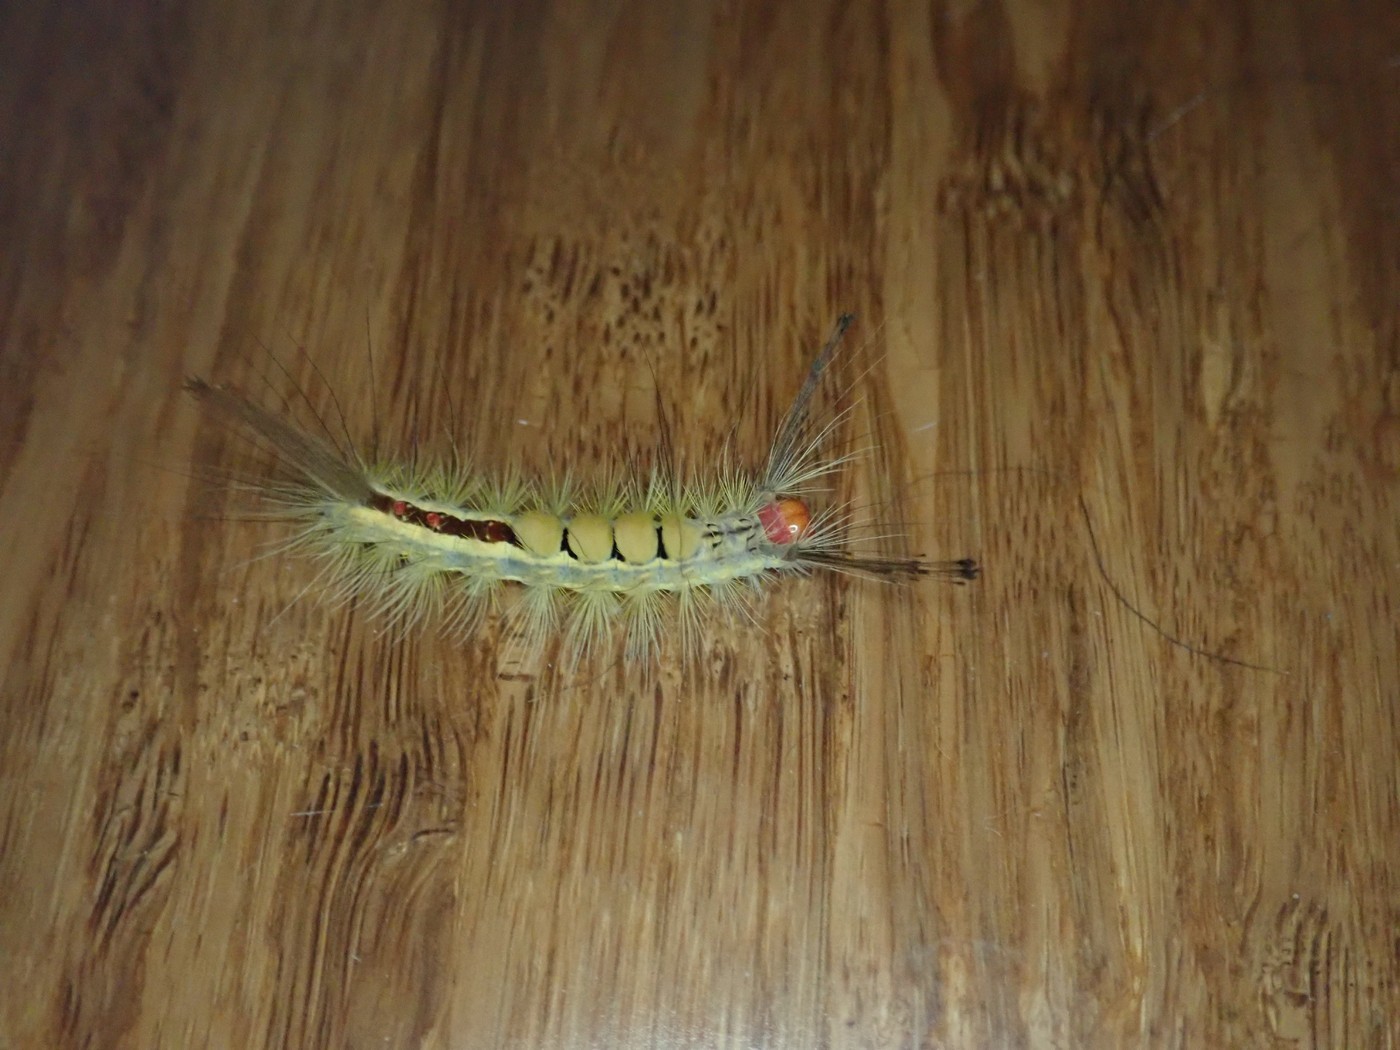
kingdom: Animalia
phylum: Arthropoda
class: Insecta
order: Lepidoptera
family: Erebidae
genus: Orgyia
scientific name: Orgyia leucostigma
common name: White-marked tussock moth
